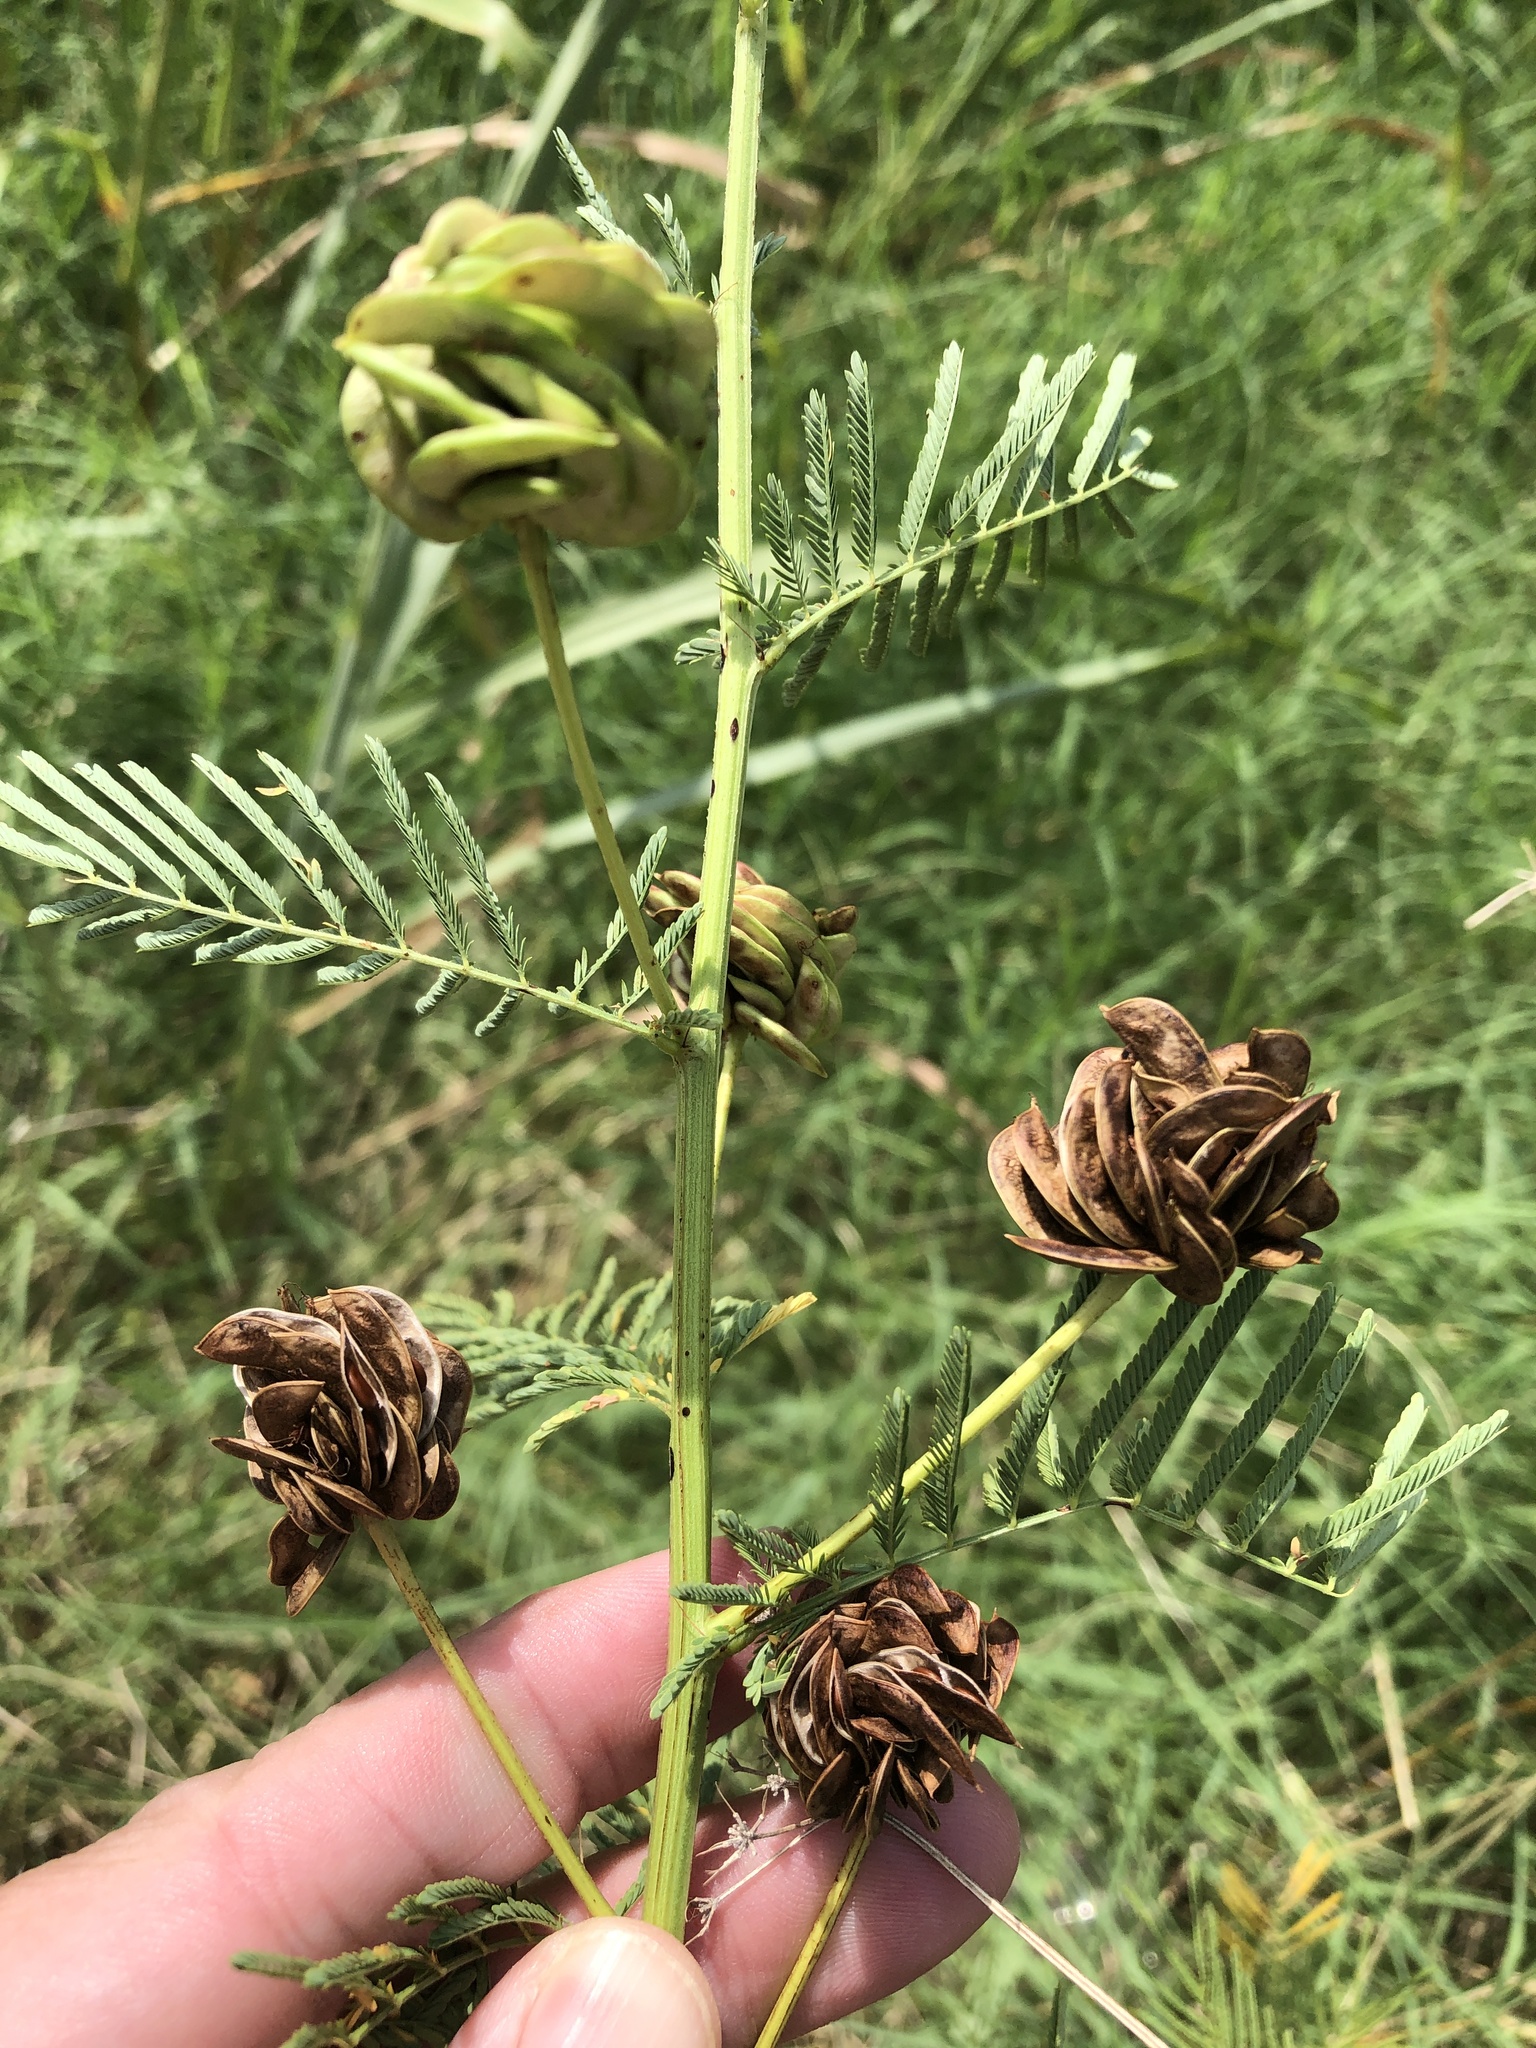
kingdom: Plantae
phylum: Tracheophyta
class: Magnoliopsida
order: Fabales
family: Fabaceae
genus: Desmanthus
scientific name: Desmanthus illinoensis
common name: Illinois bundle-flower
